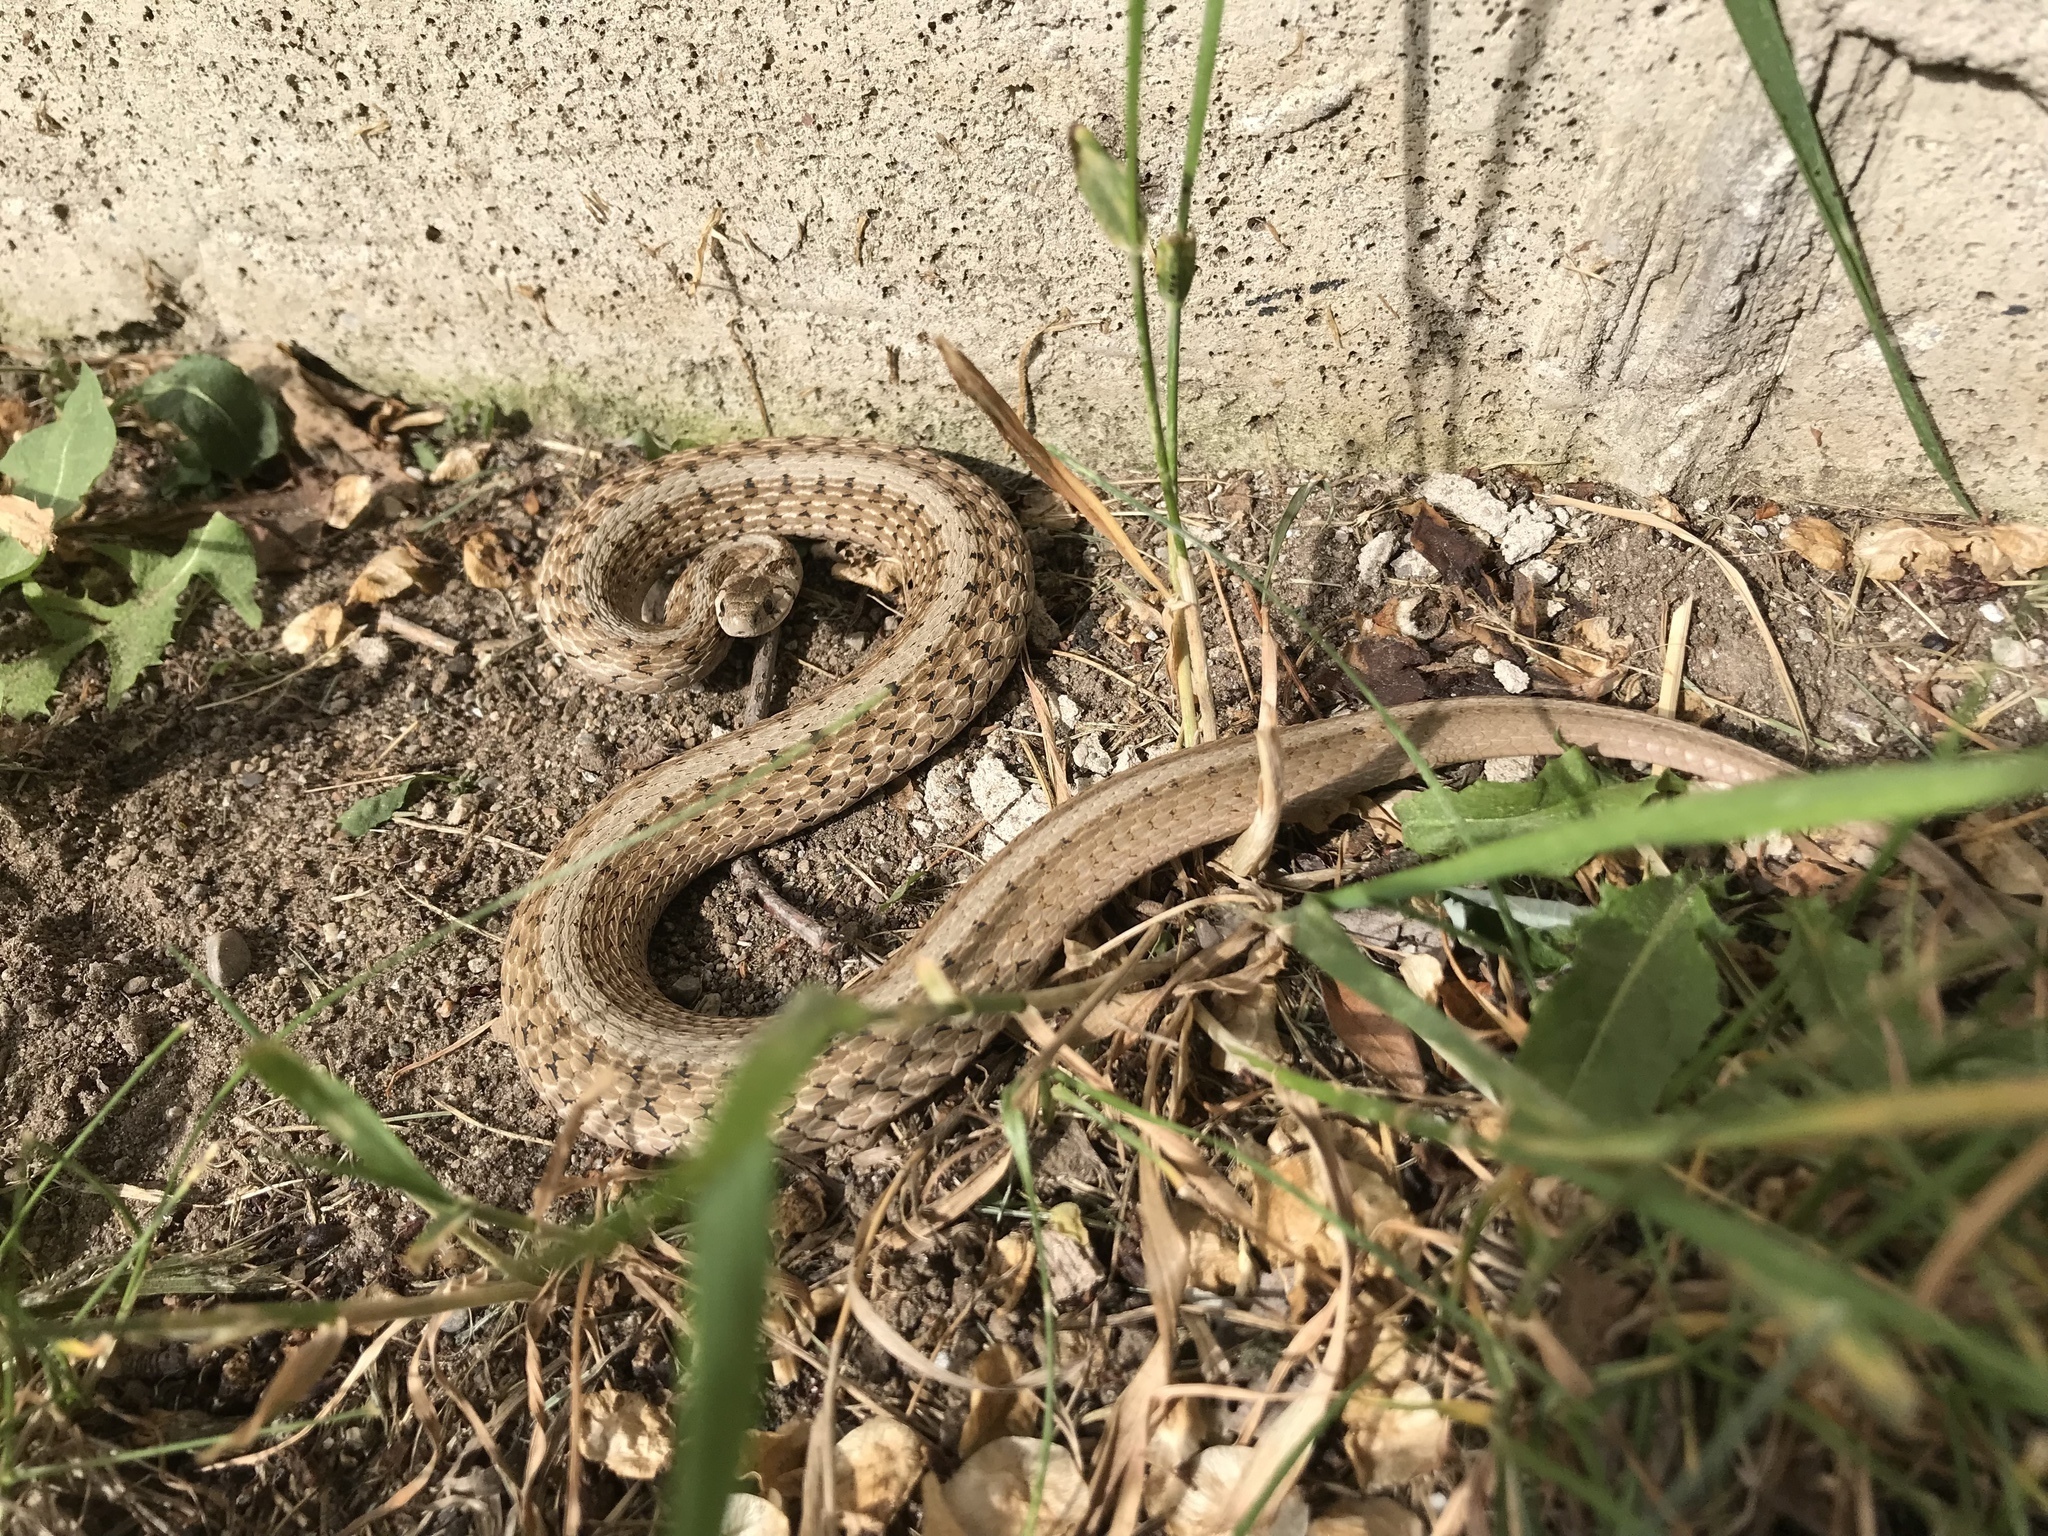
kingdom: Animalia
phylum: Chordata
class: Squamata
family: Colubridae
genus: Storeria
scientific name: Storeria dekayi
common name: (dekay’s) brown snake
